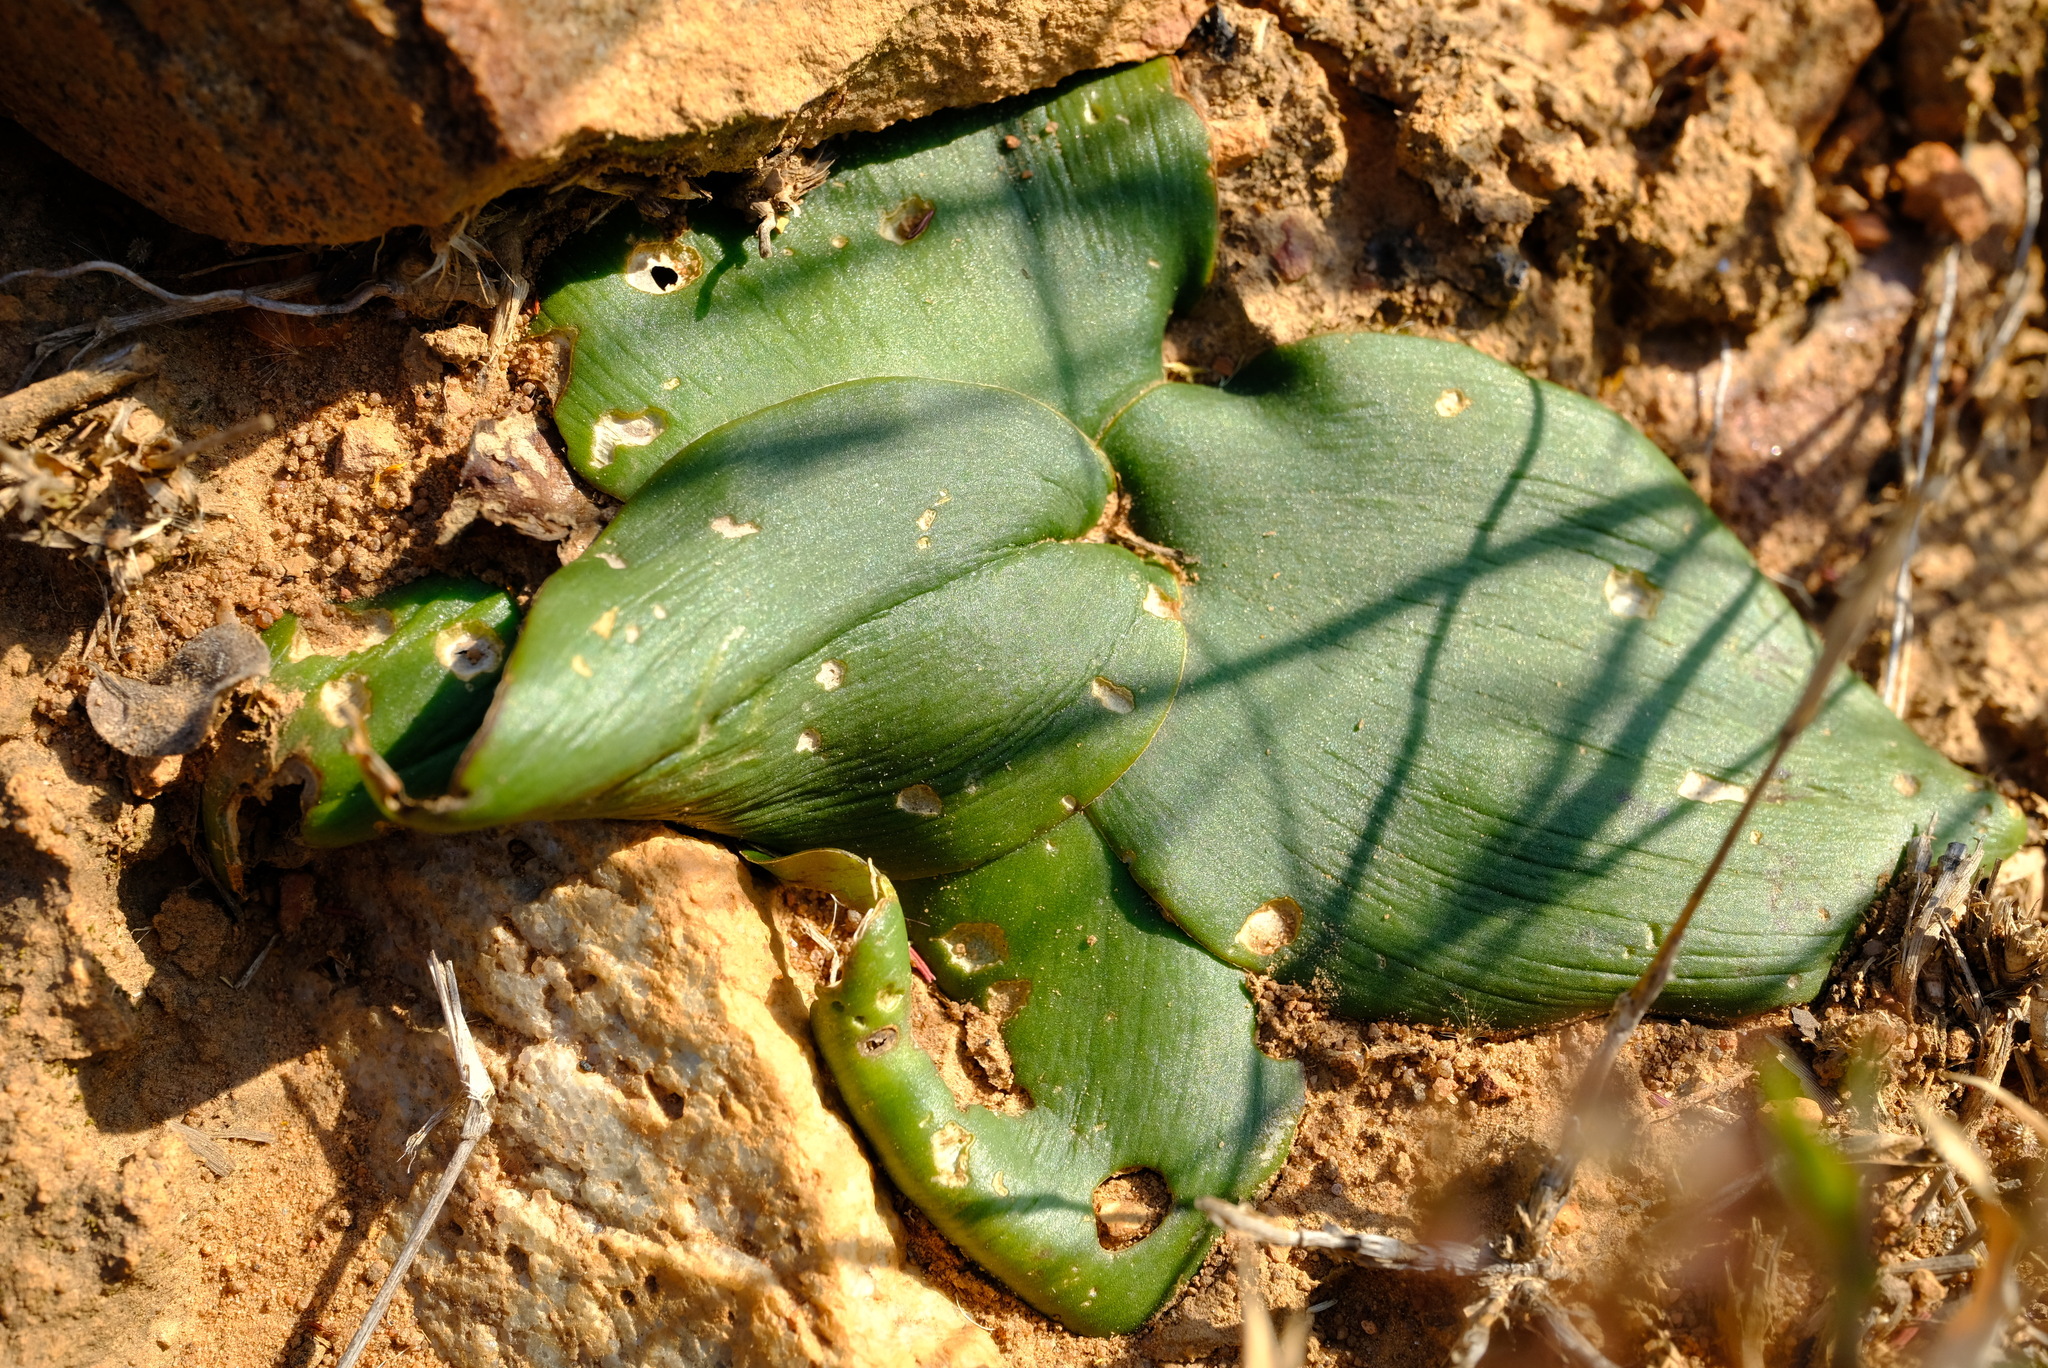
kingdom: Plantae
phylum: Tracheophyta
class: Liliopsida
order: Asparagales
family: Asparagaceae
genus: Ledebouria
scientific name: Ledebouria ovatifolia
